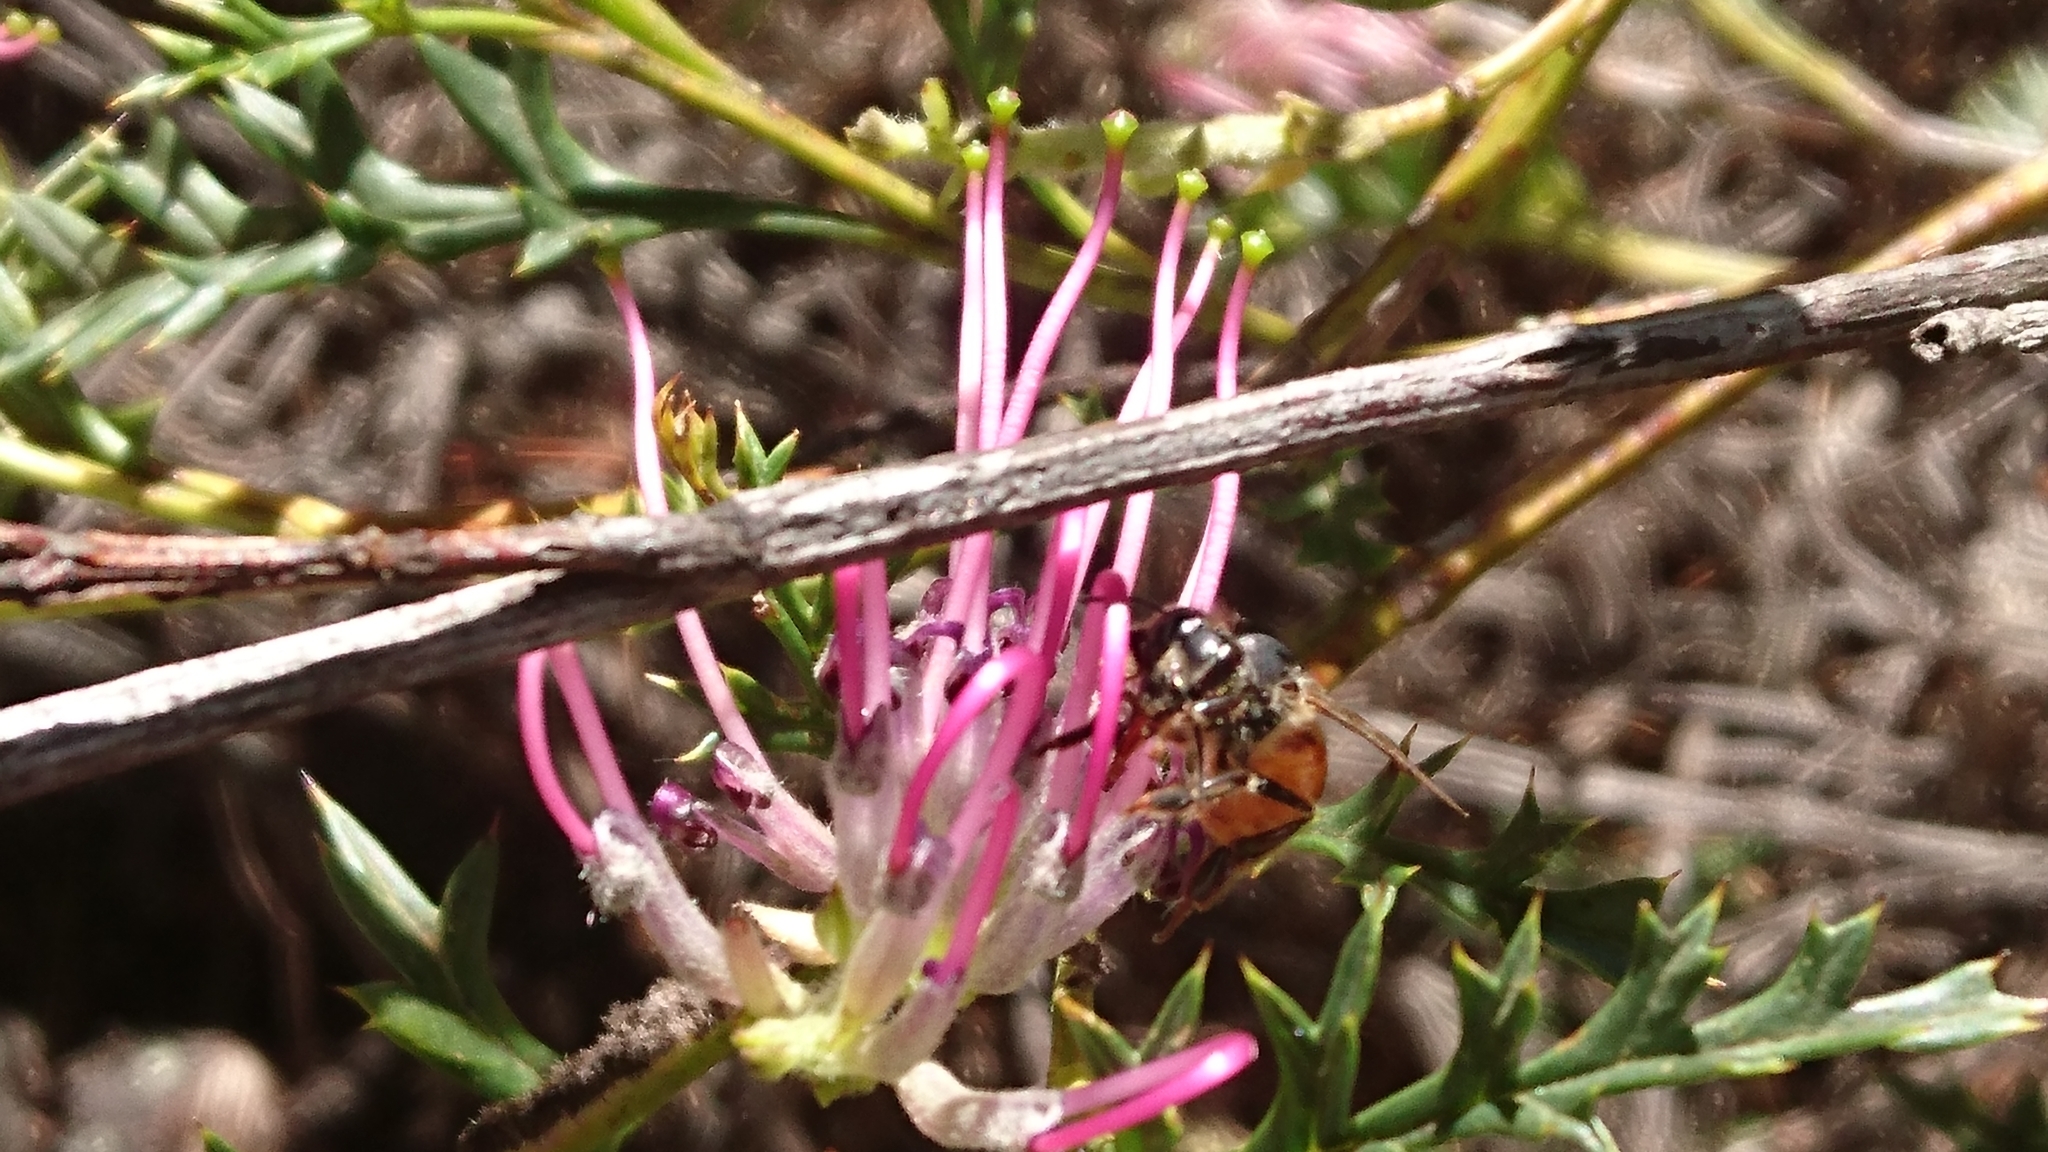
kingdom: Animalia
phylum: Arthropoda
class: Insecta
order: Hymenoptera
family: Apidae
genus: Apis
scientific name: Apis mellifera
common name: Honey bee
